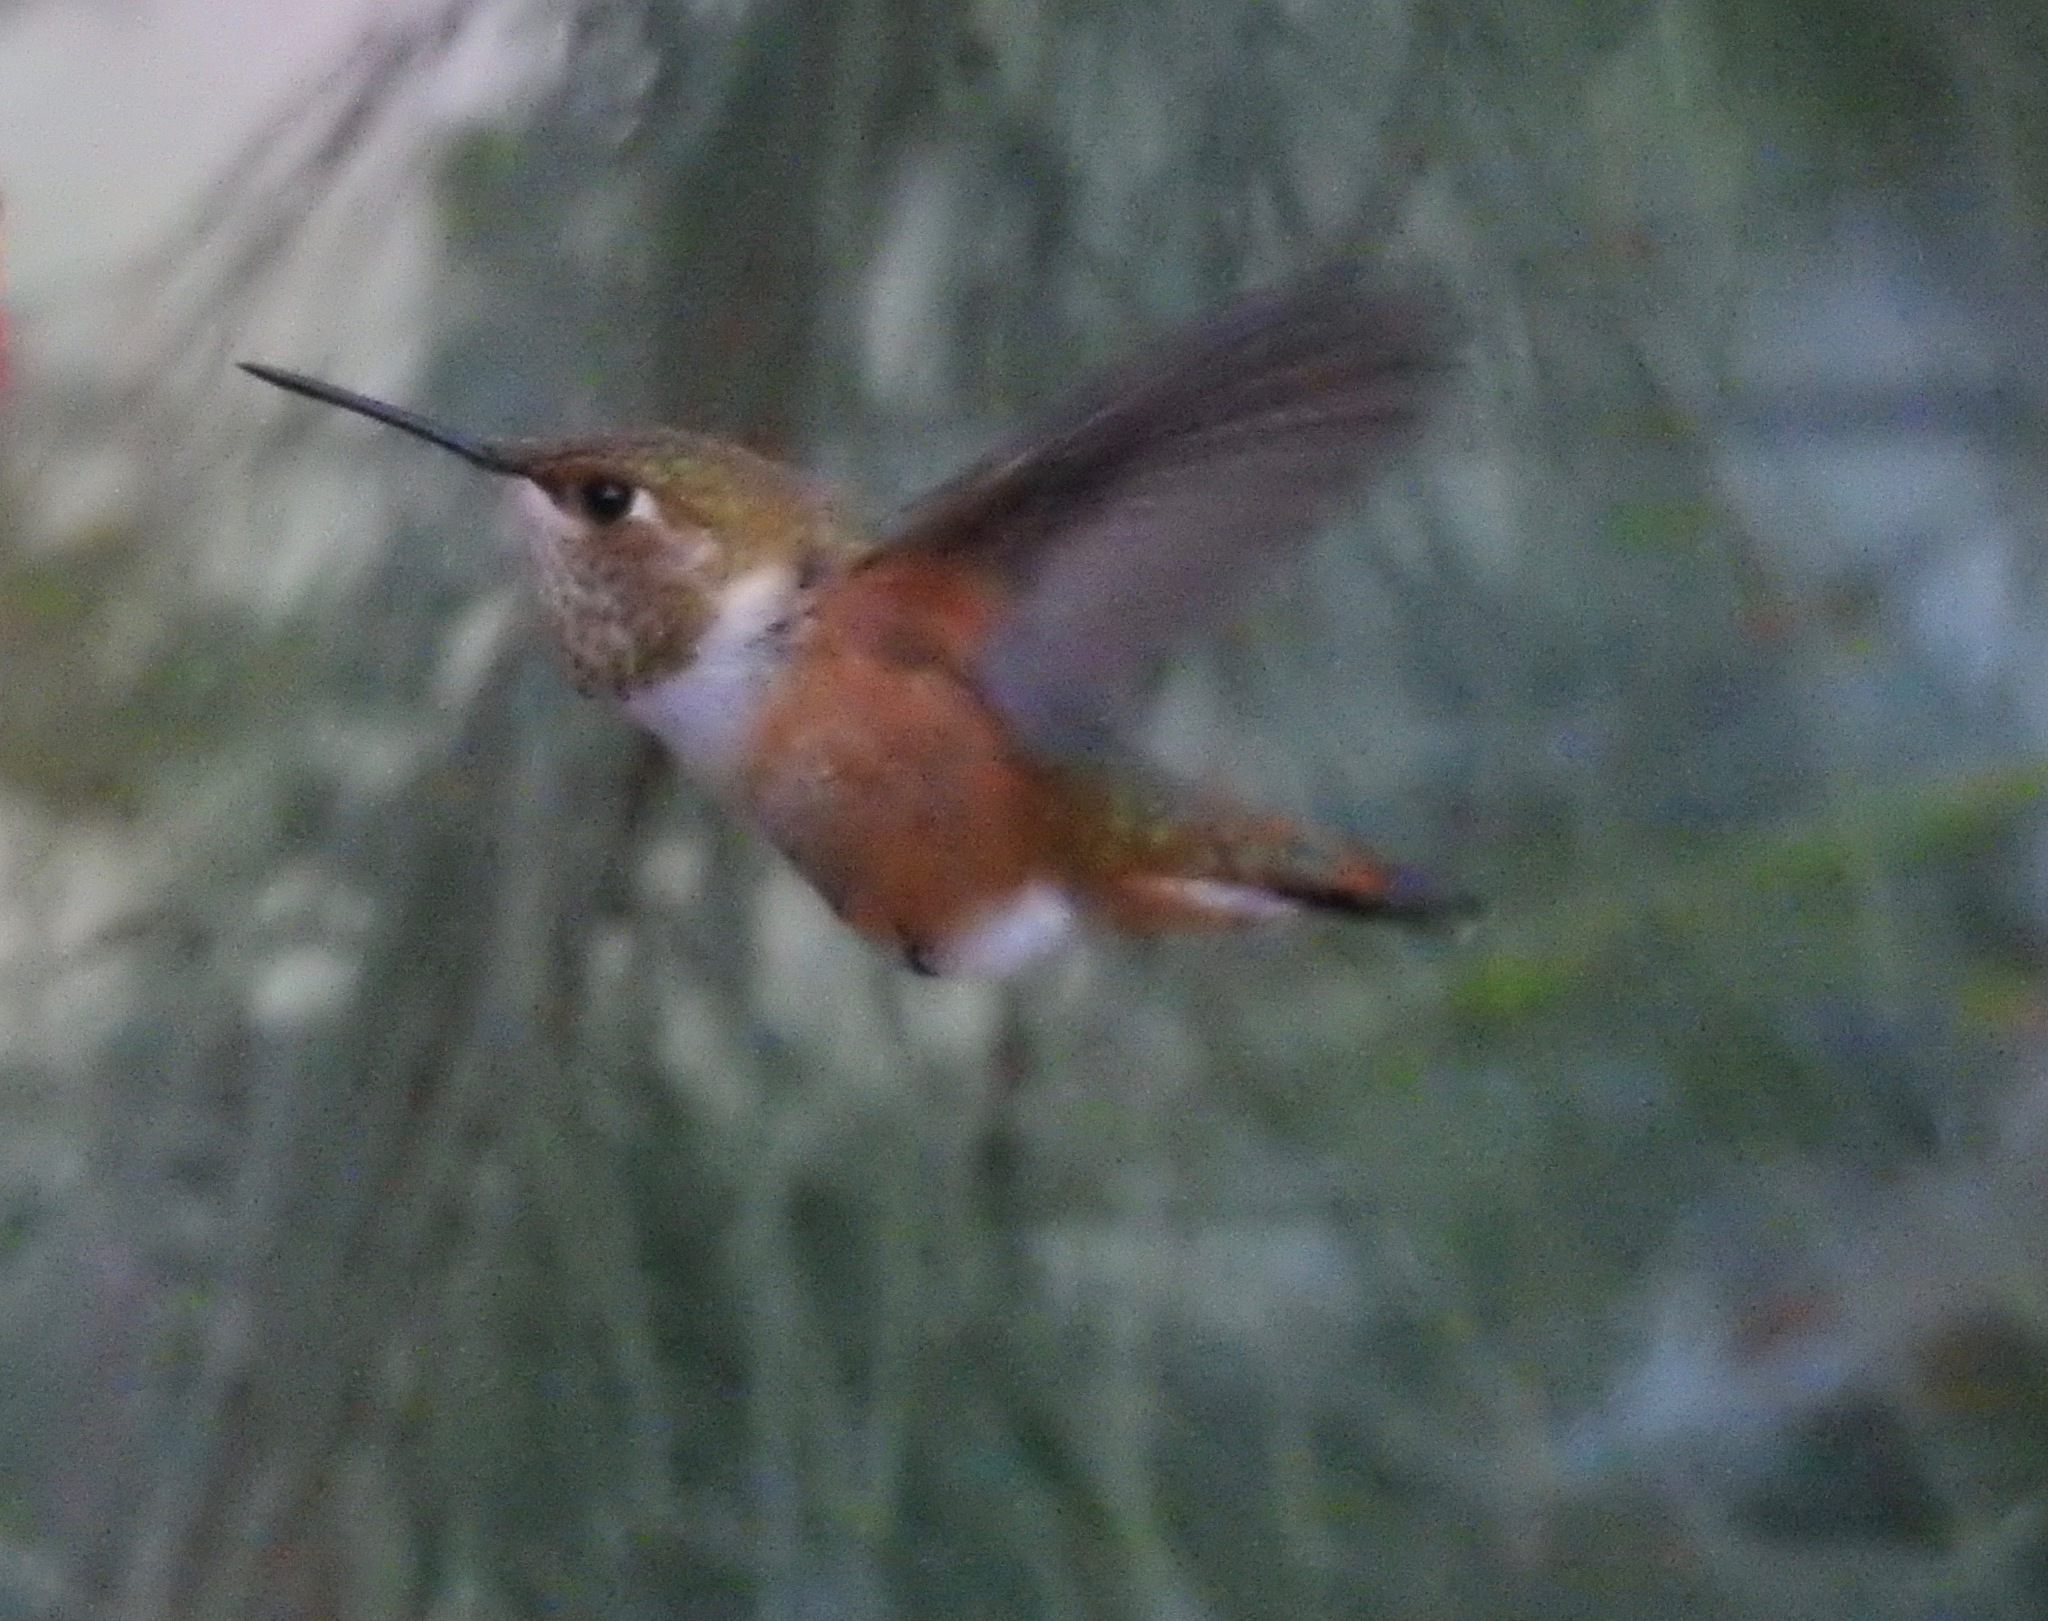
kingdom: Animalia
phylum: Chordata
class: Aves
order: Apodiformes
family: Trochilidae
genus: Selasphorus
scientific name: Selasphorus rufus
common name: Rufous hummingbird
